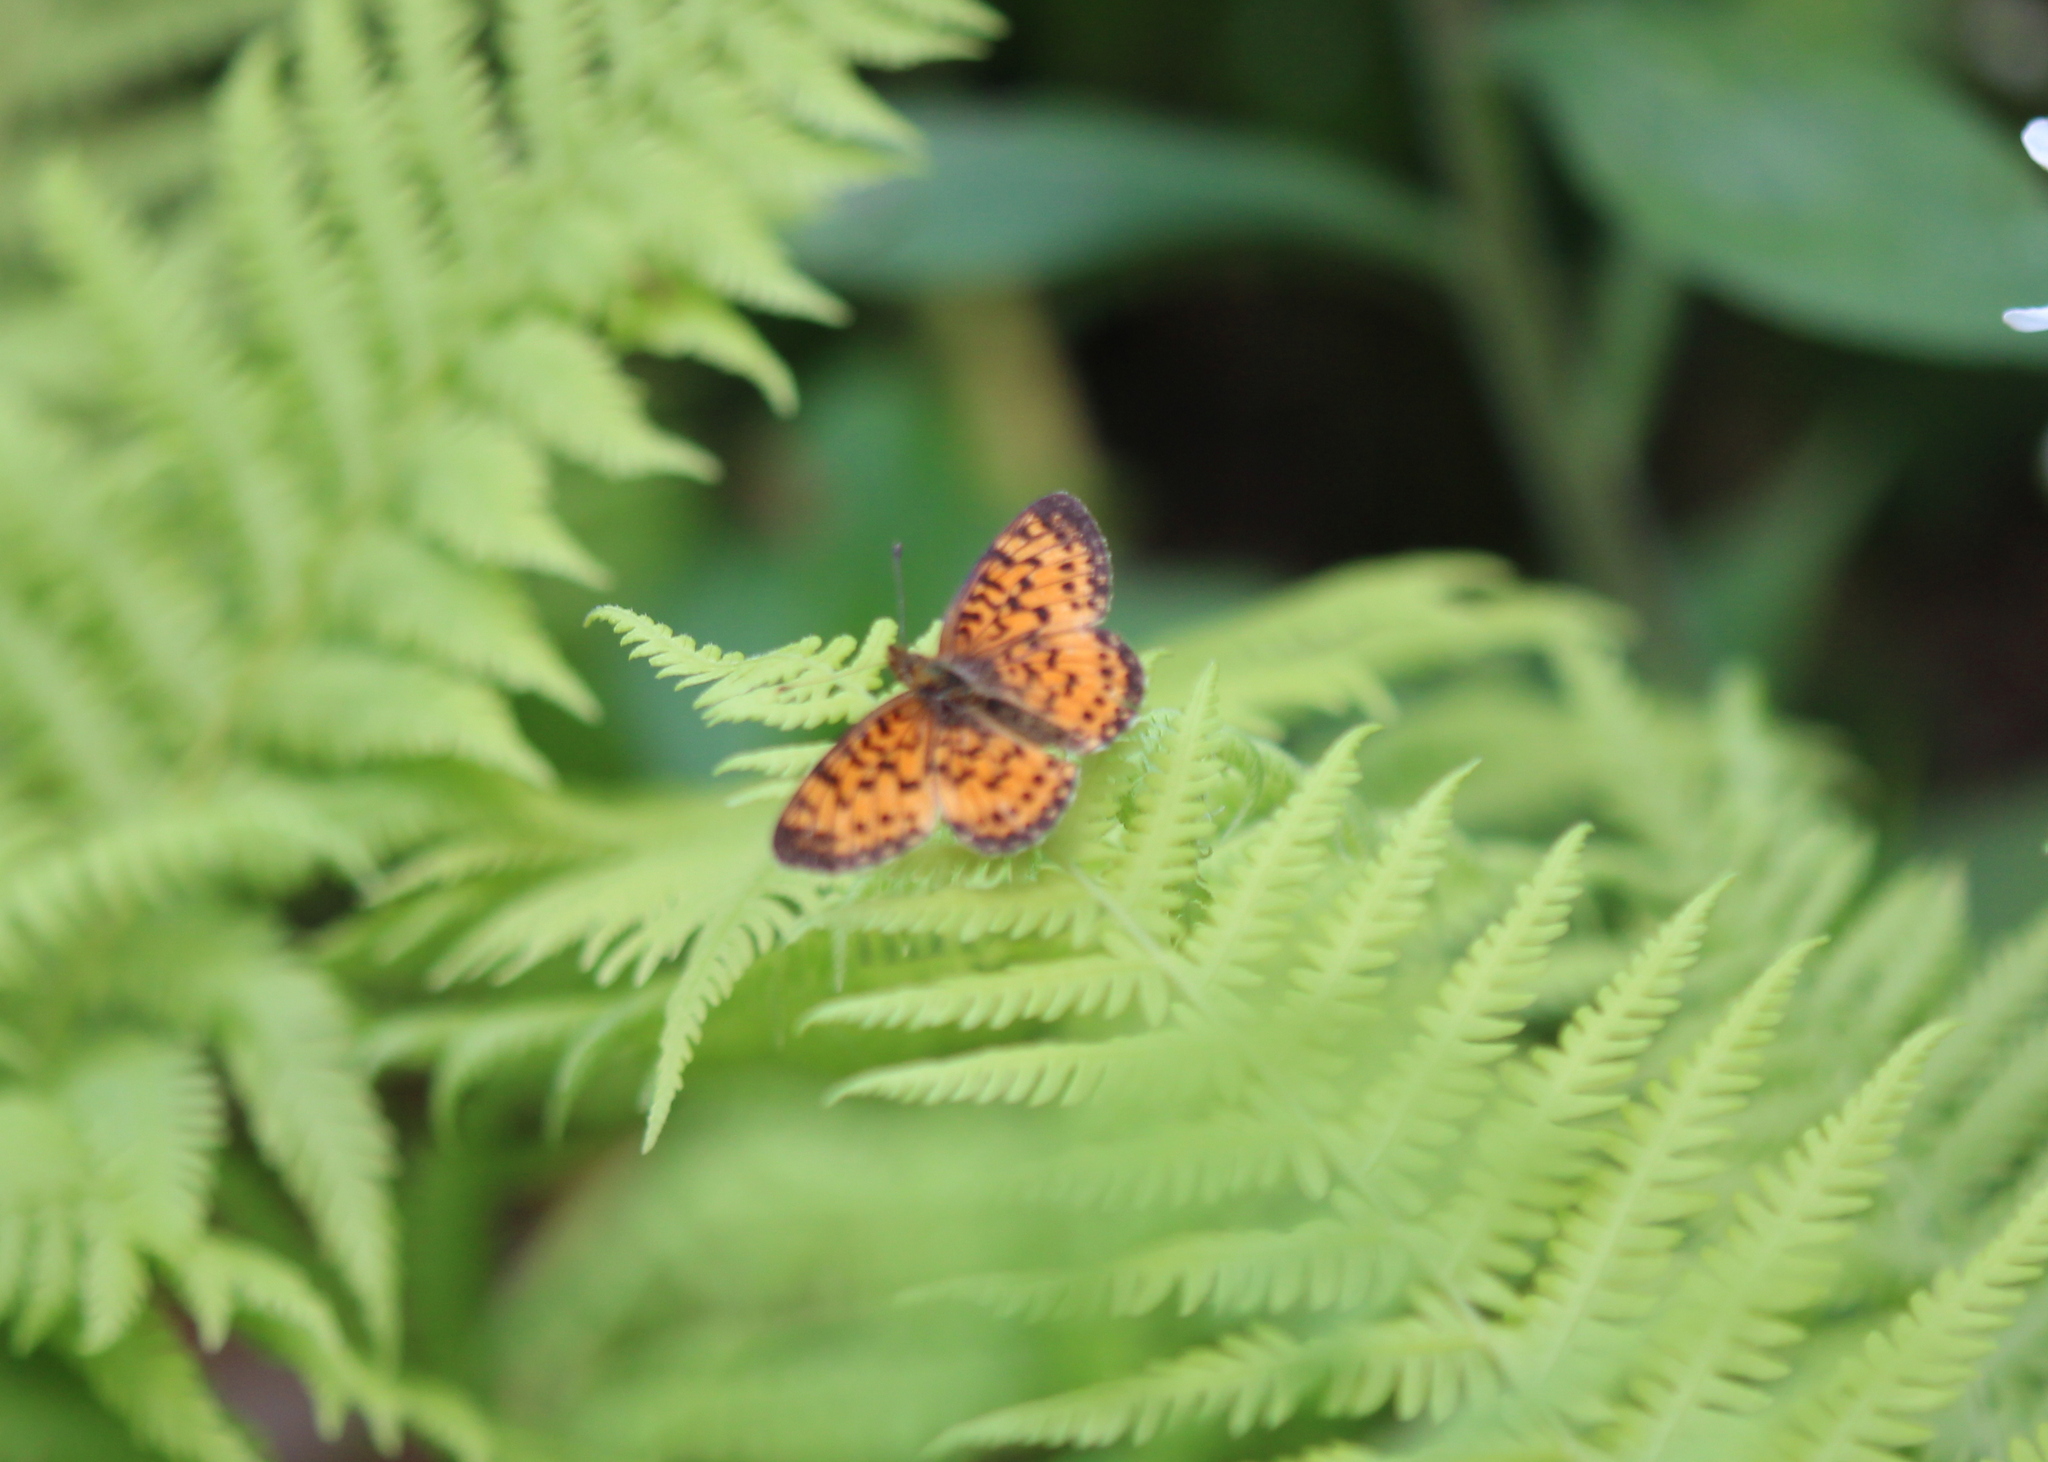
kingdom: Animalia
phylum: Arthropoda
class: Insecta
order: Lepidoptera
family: Nymphalidae
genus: Boloria
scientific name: Boloria
